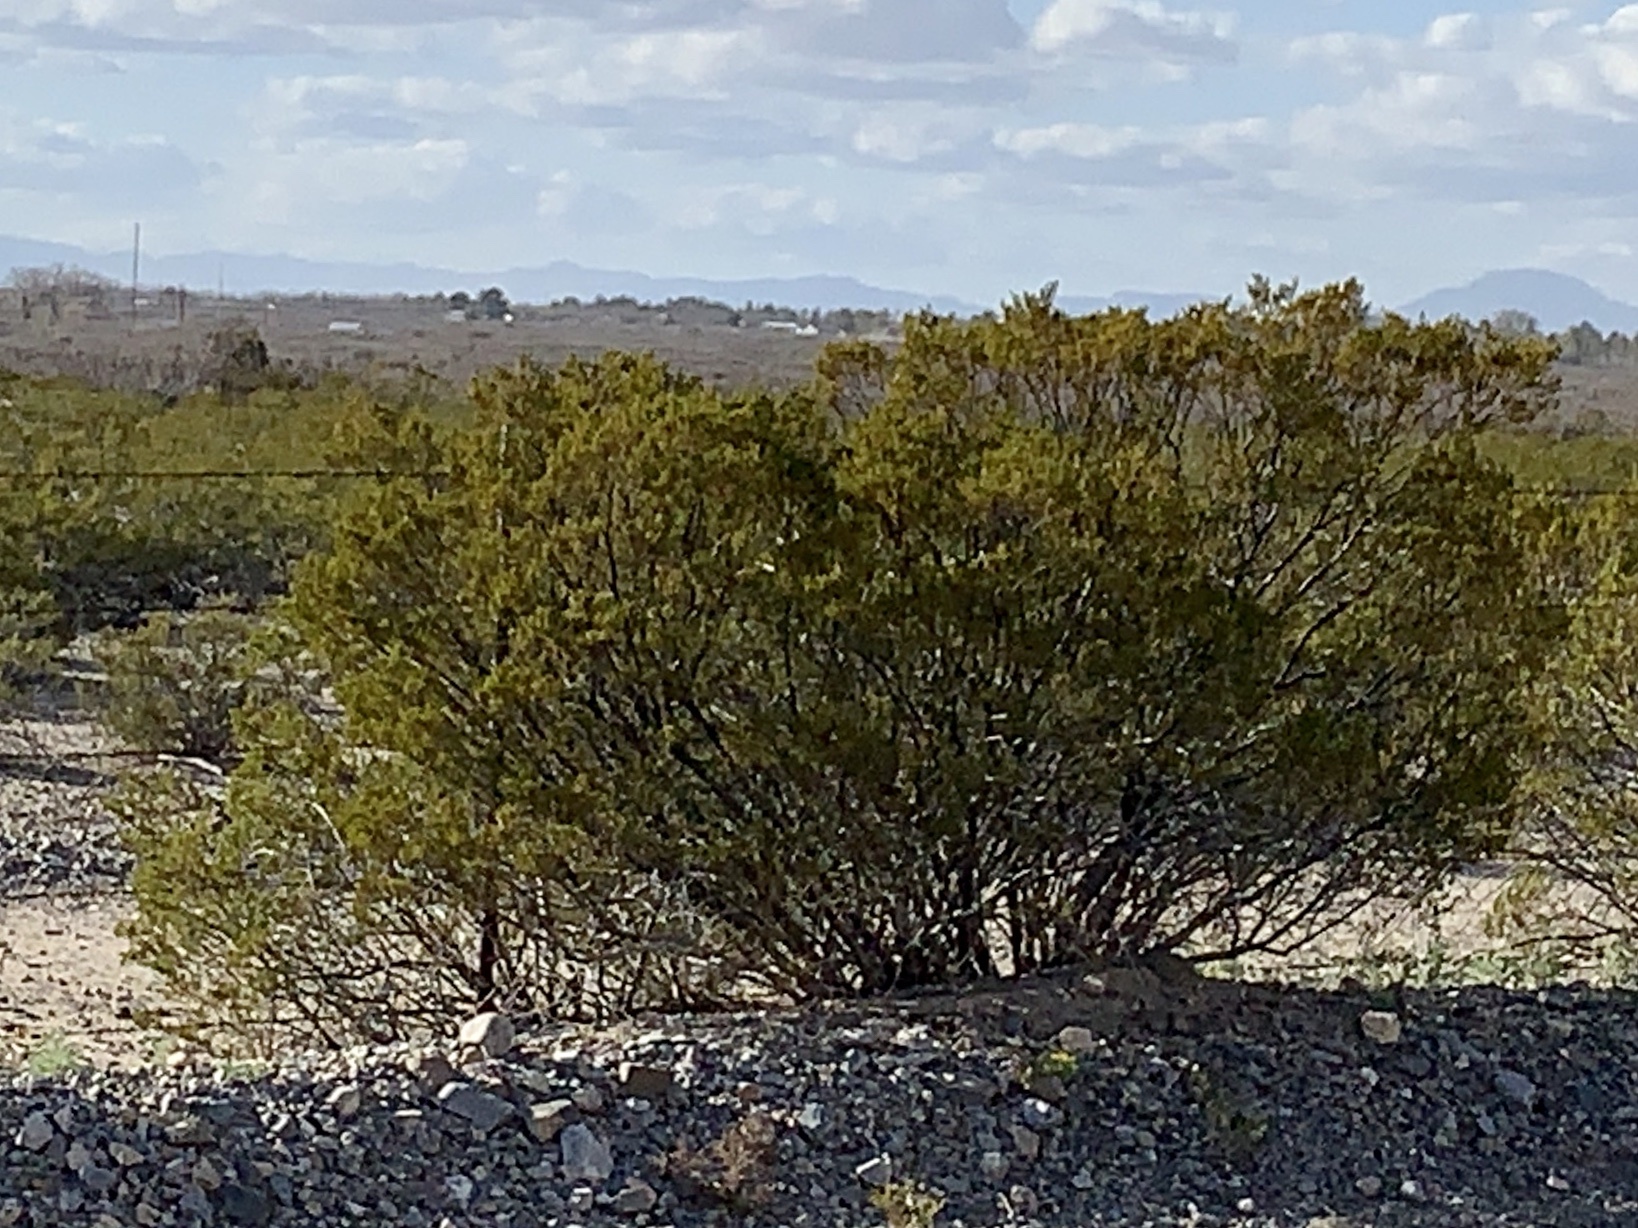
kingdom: Plantae
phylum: Tracheophyta
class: Magnoliopsida
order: Zygophyllales
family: Zygophyllaceae
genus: Larrea
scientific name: Larrea tridentata
